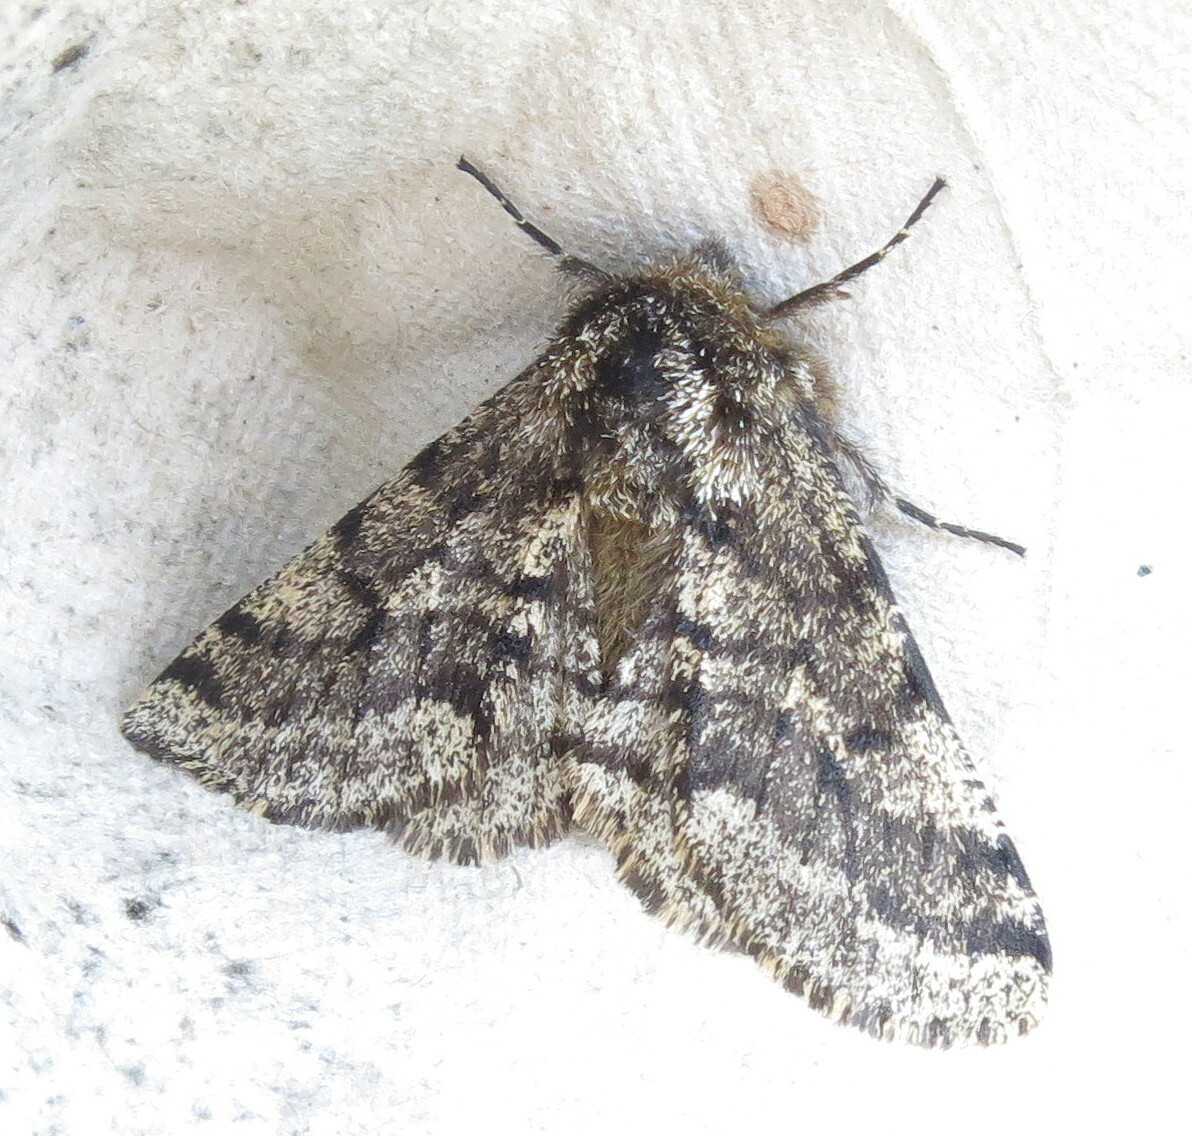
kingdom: Animalia
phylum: Arthropoda
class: Insecta
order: Lepidoptera
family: Geometridae
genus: Lycia
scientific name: Lycia hirtaria
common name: Brindled beauty
